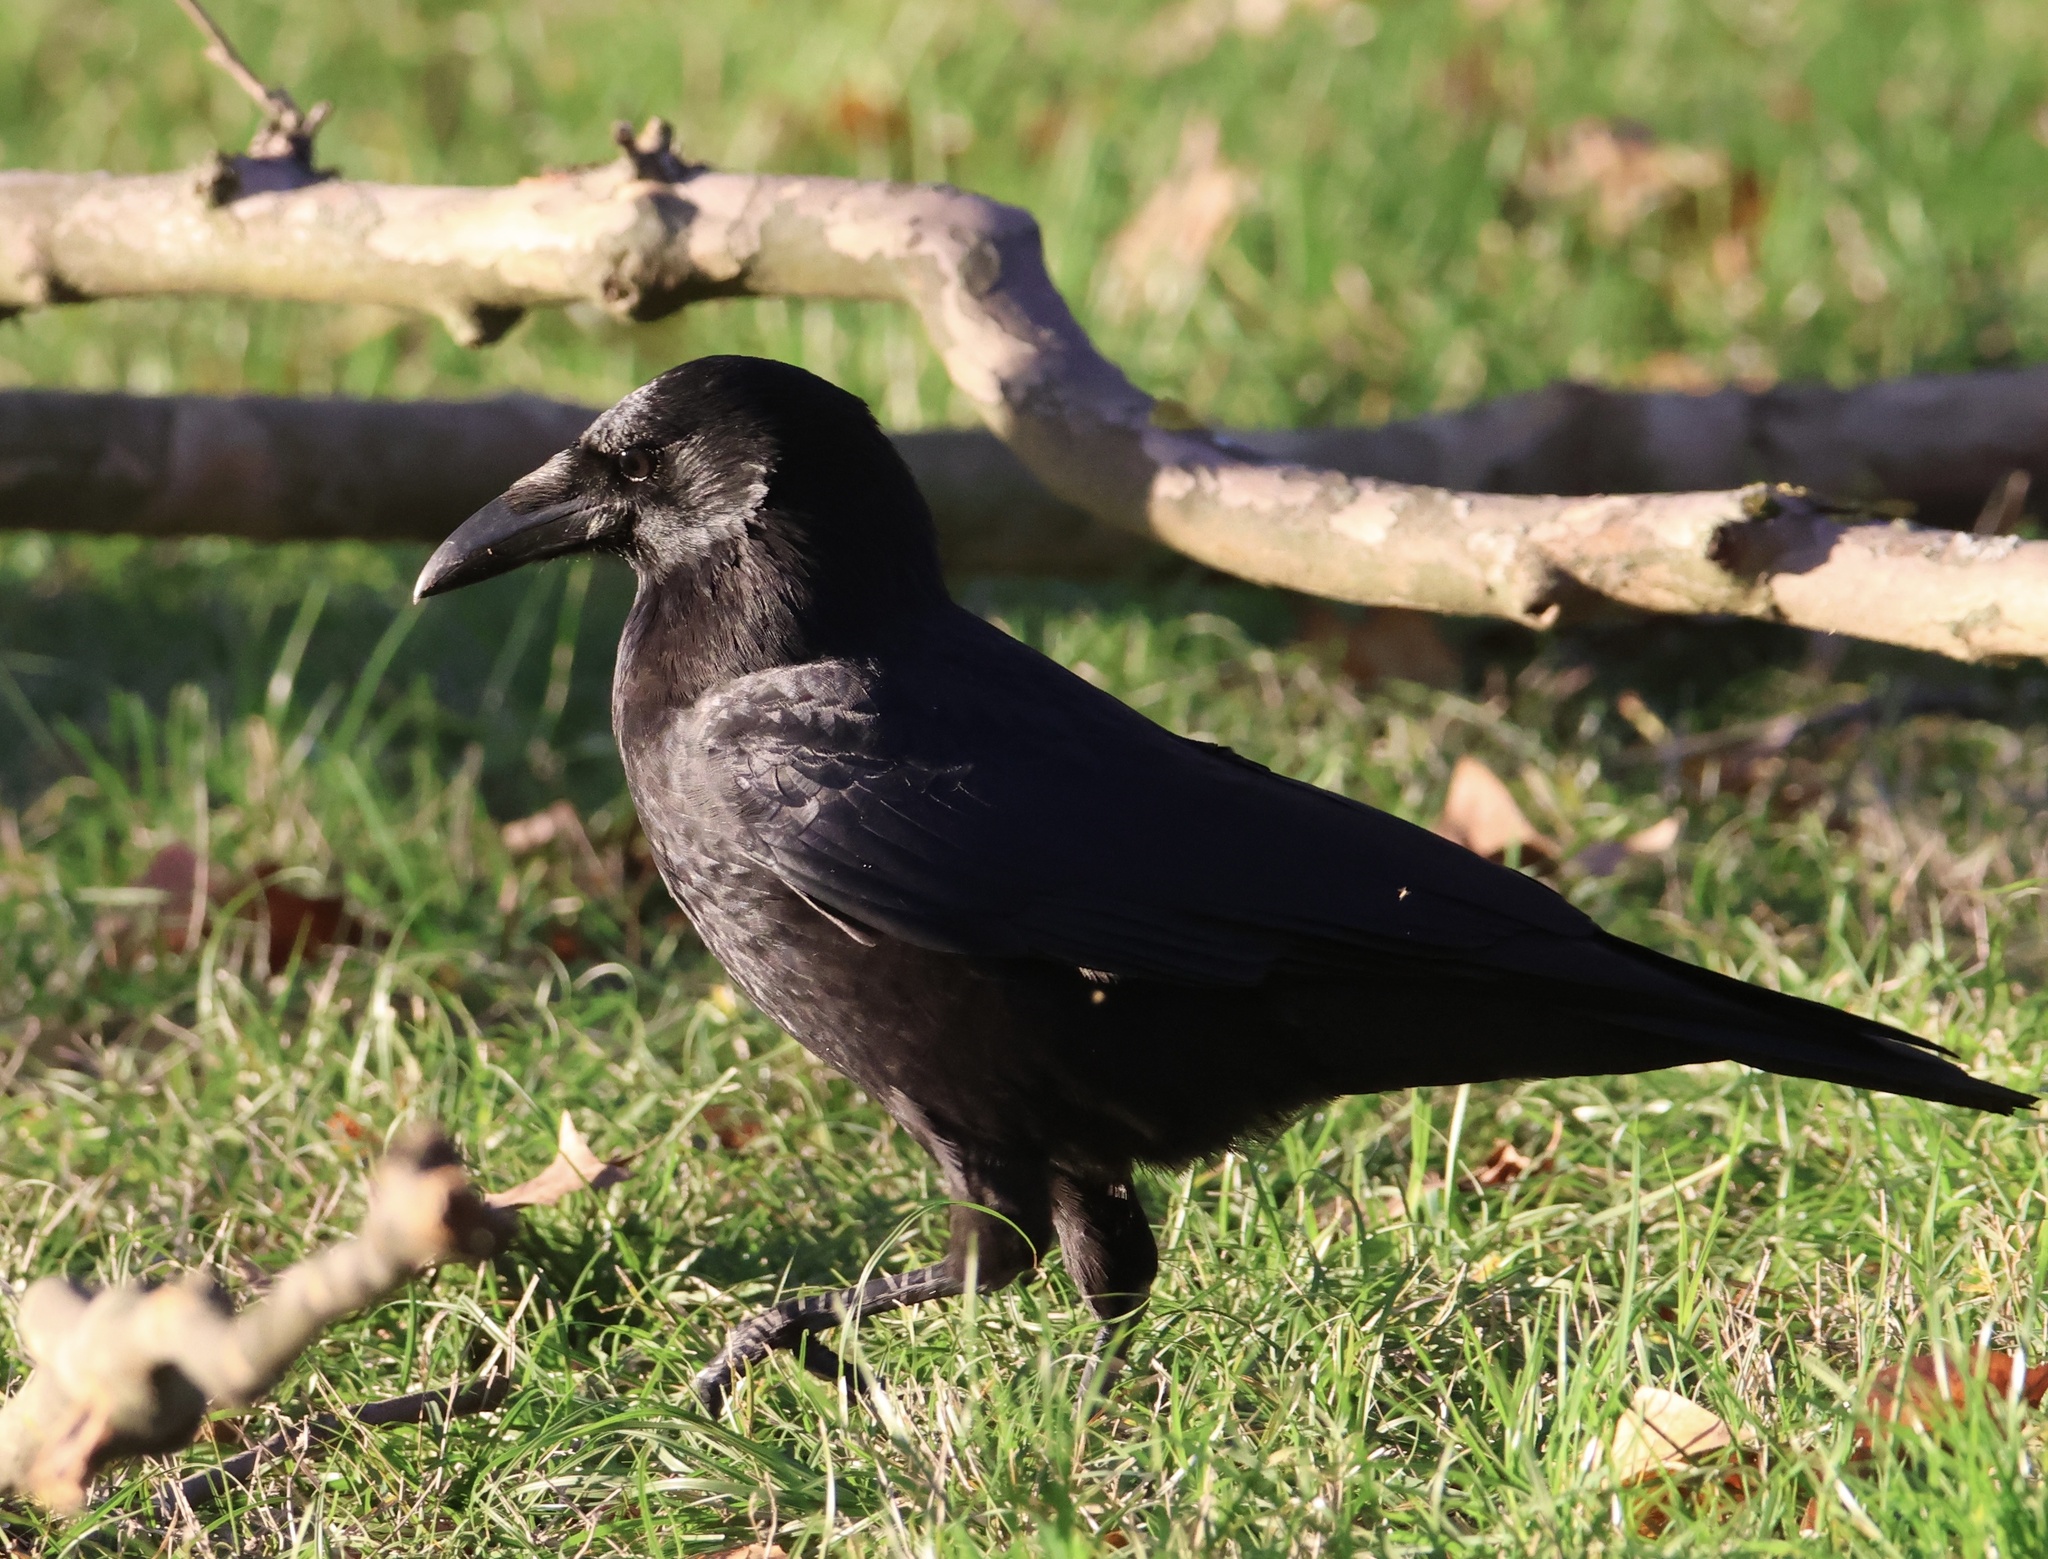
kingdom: Animalia
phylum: Chordata
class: Aves
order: Passeriformes
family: Corvidae
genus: Corvus
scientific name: Corvus corone
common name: Carrion crow
